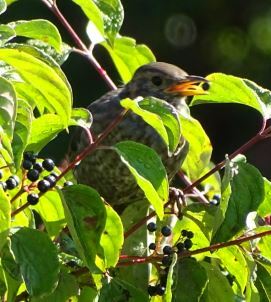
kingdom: Animalia
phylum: Chordata
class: Aves
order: Passeriformes
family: Turdidae
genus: Turdus
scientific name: Turdus merula
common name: Common blackbird
